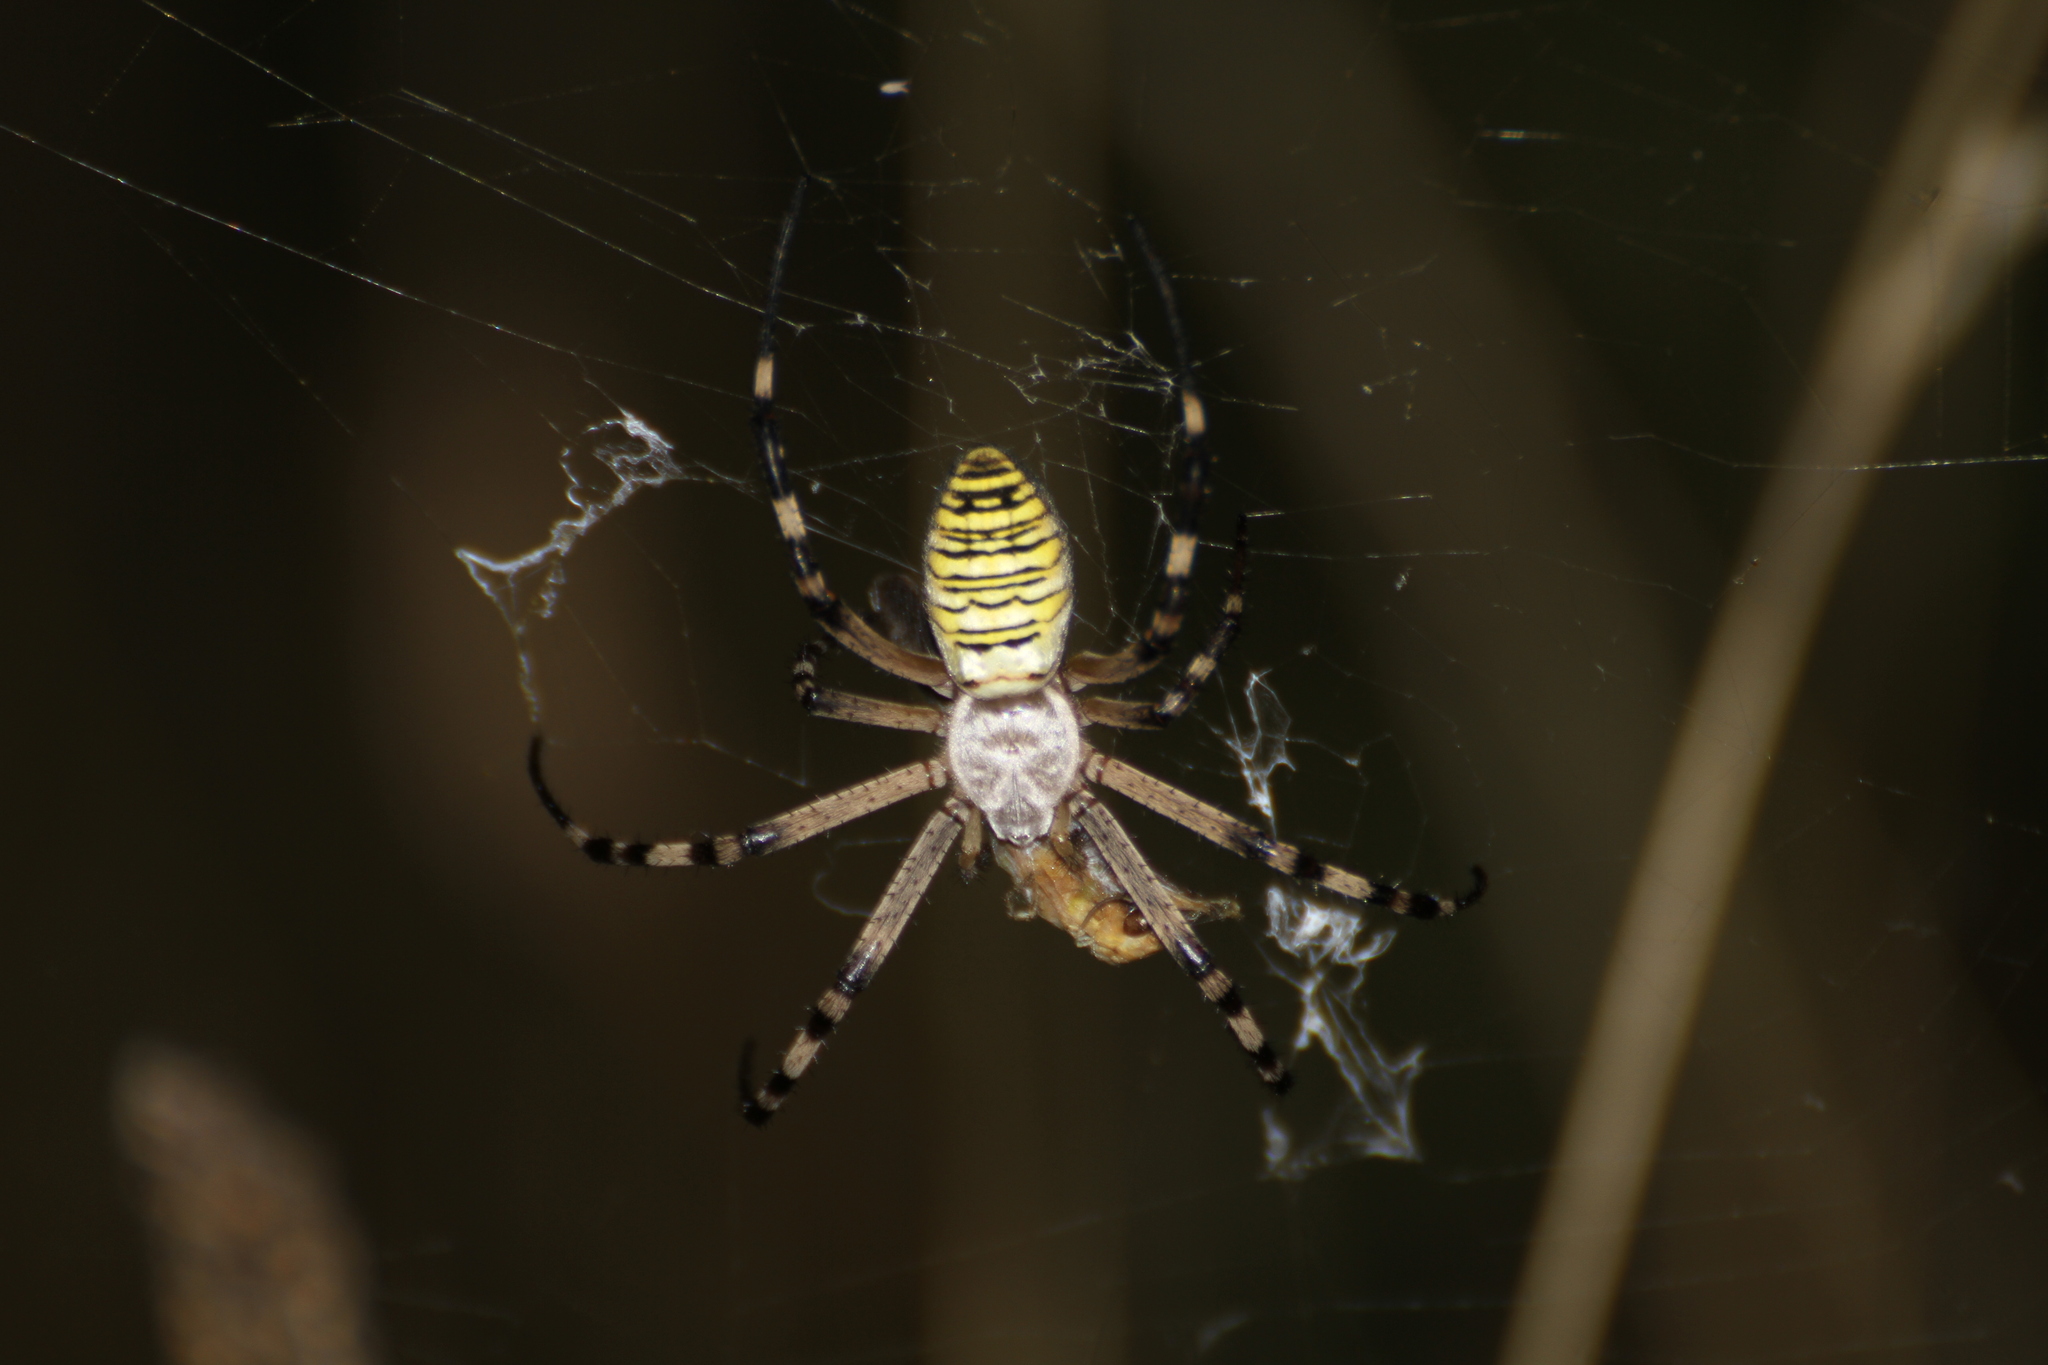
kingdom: Animalia
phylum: Arthropoda
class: Arachnida
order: Araneae
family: Araneidae
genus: Argiope
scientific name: Argiope bruennichi
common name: Wasp spider
